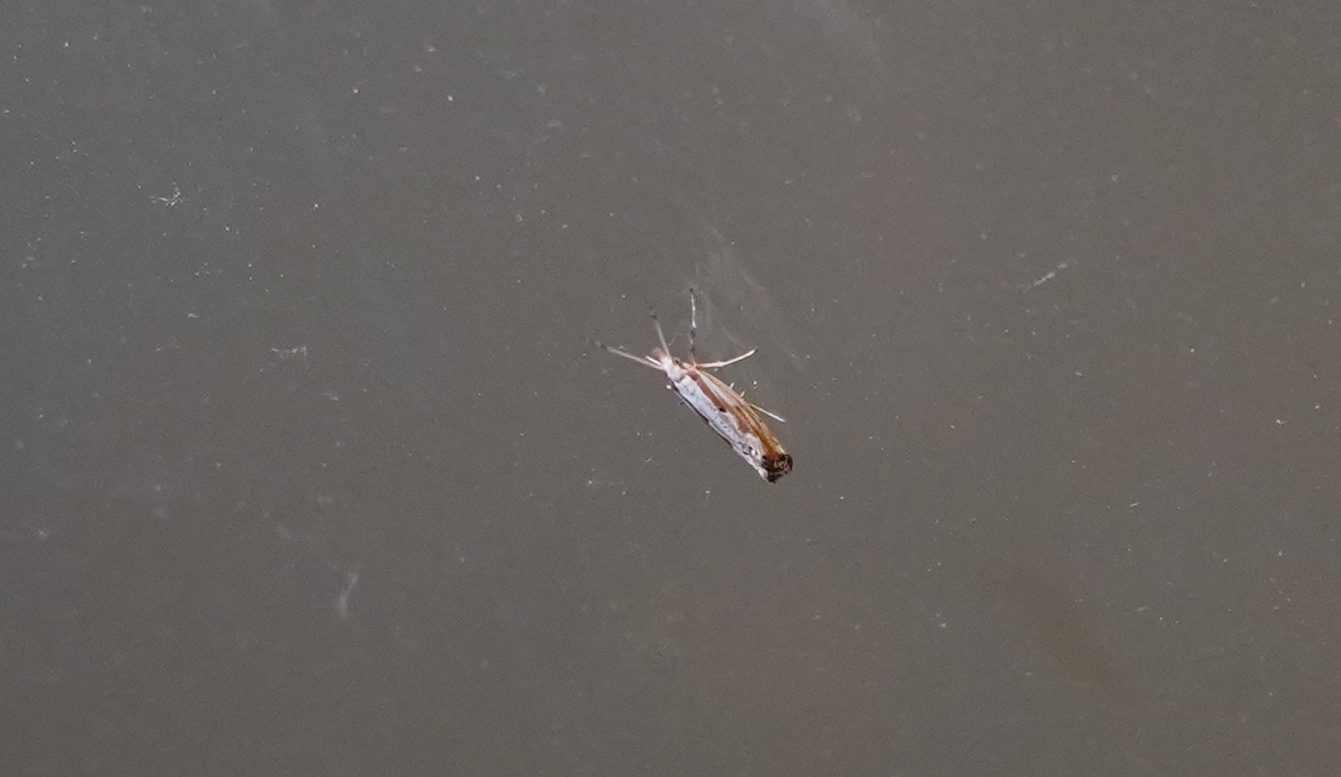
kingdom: Animalia
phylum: Arthropoda
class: Insecta
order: Lepidoptera
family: Plutellidae
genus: Plutella
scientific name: Plutella porrectella
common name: Dame's rocket moth
